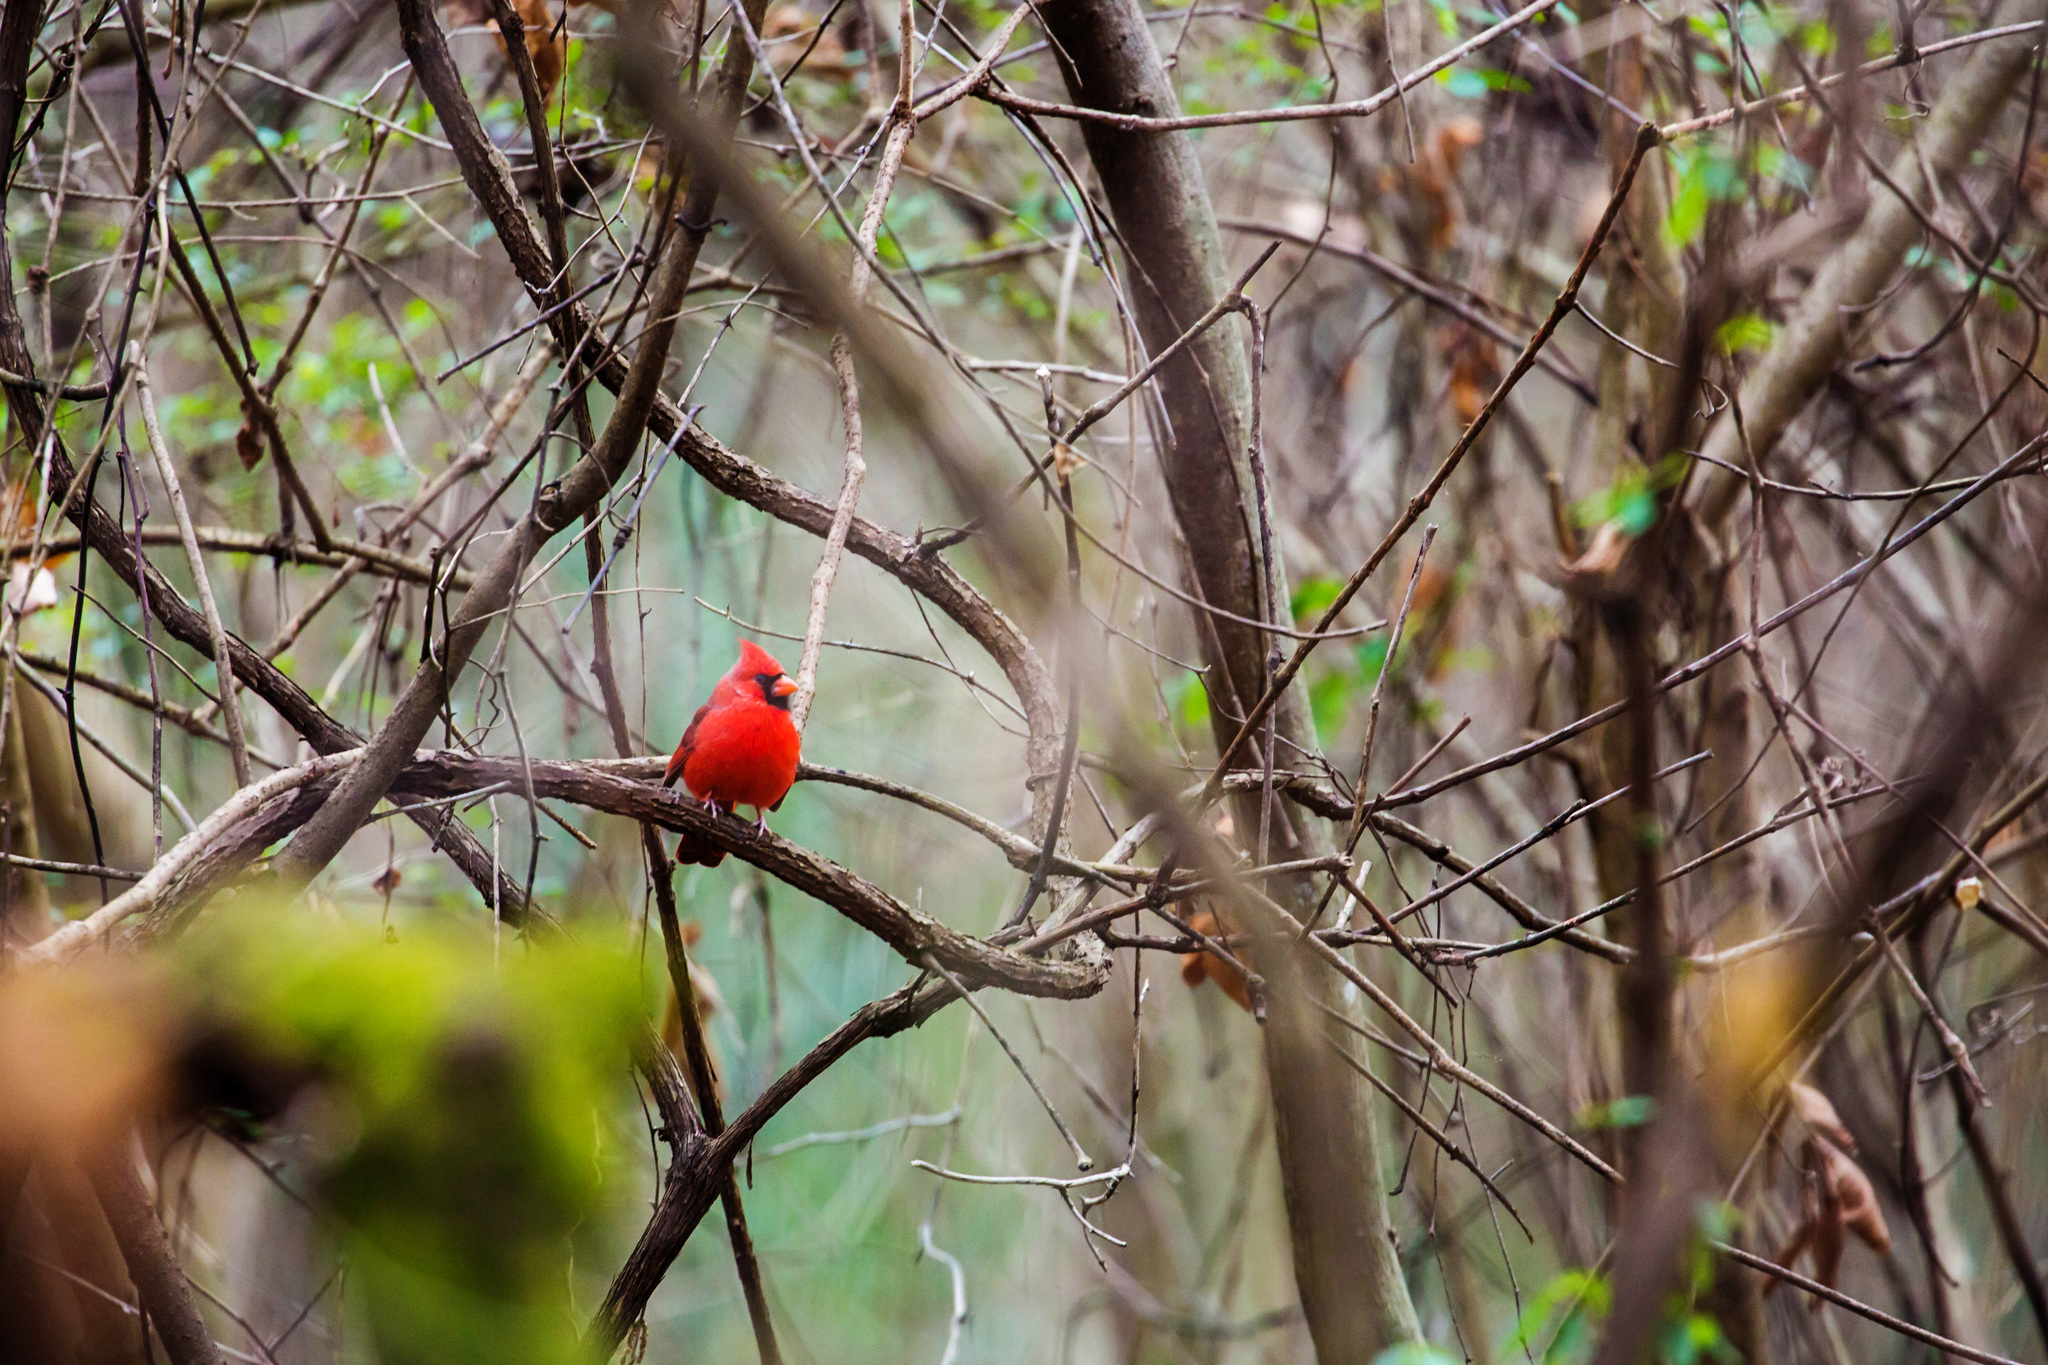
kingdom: Animalia
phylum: Chordata
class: Aves
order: Passeriformes
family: Cardinalidae
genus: Cardinalis
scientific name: Cardinalis cardinalis
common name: Northern cardinal
